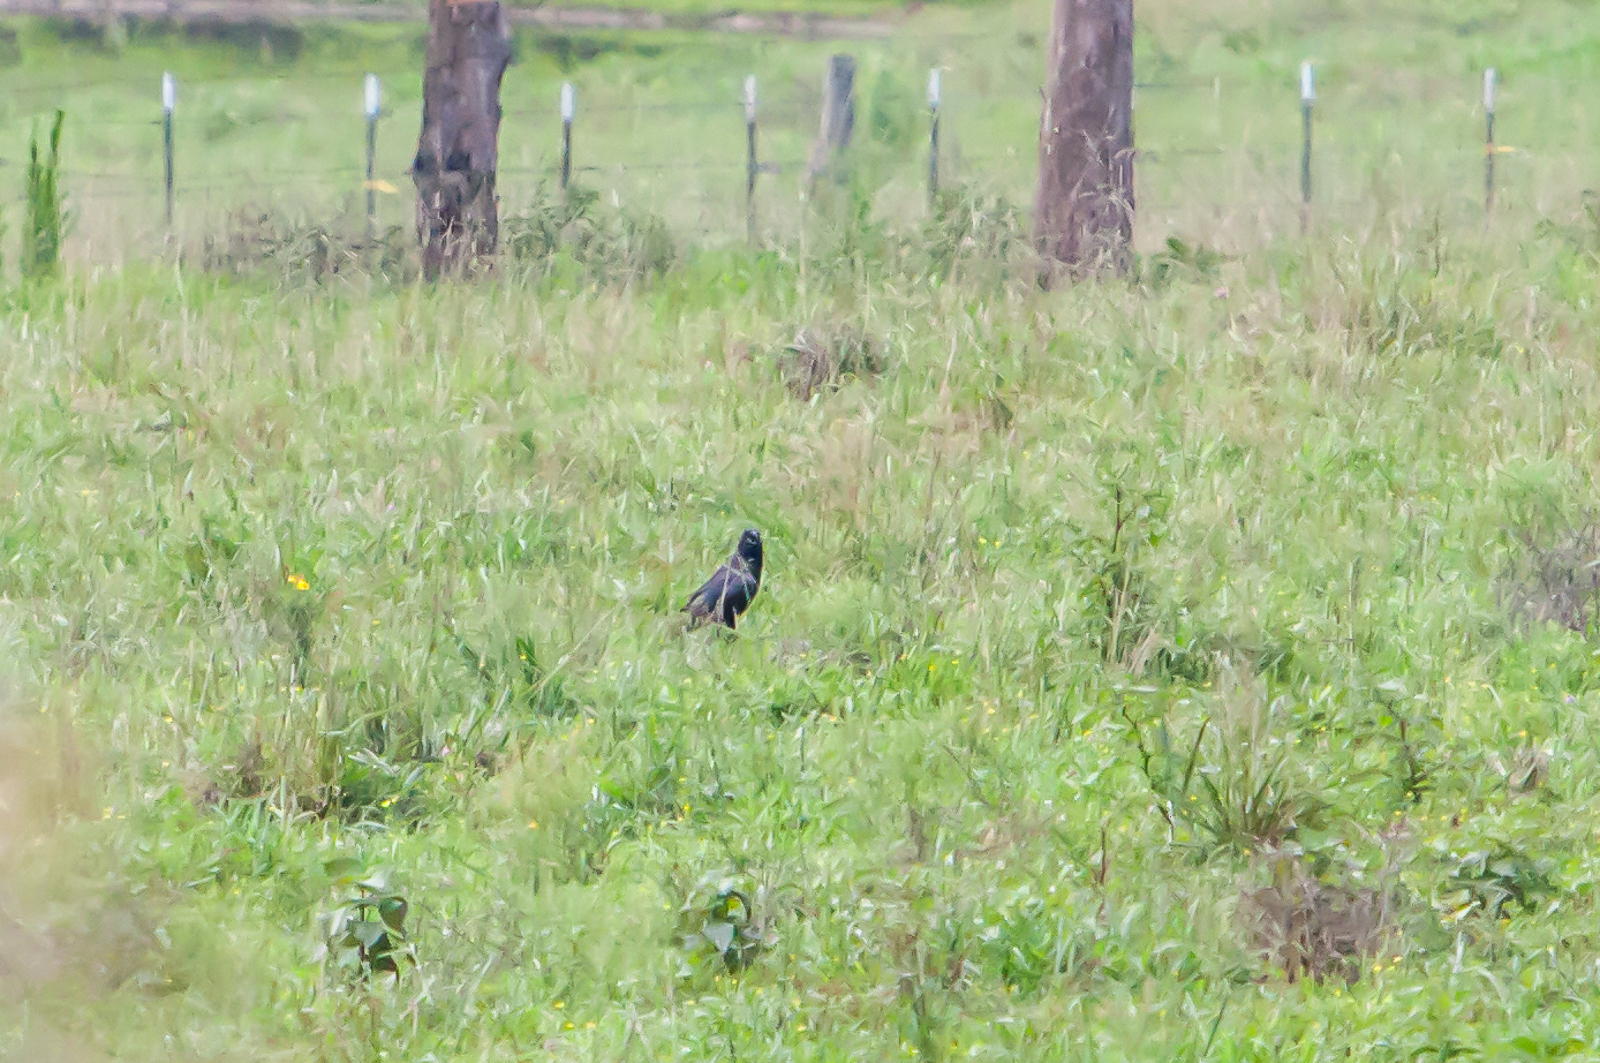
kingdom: Animalia
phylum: Chordata
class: Aves
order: Passeriformes
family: Corvidae
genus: Corvus
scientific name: Corvus brachyrhynchos
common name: American crow
